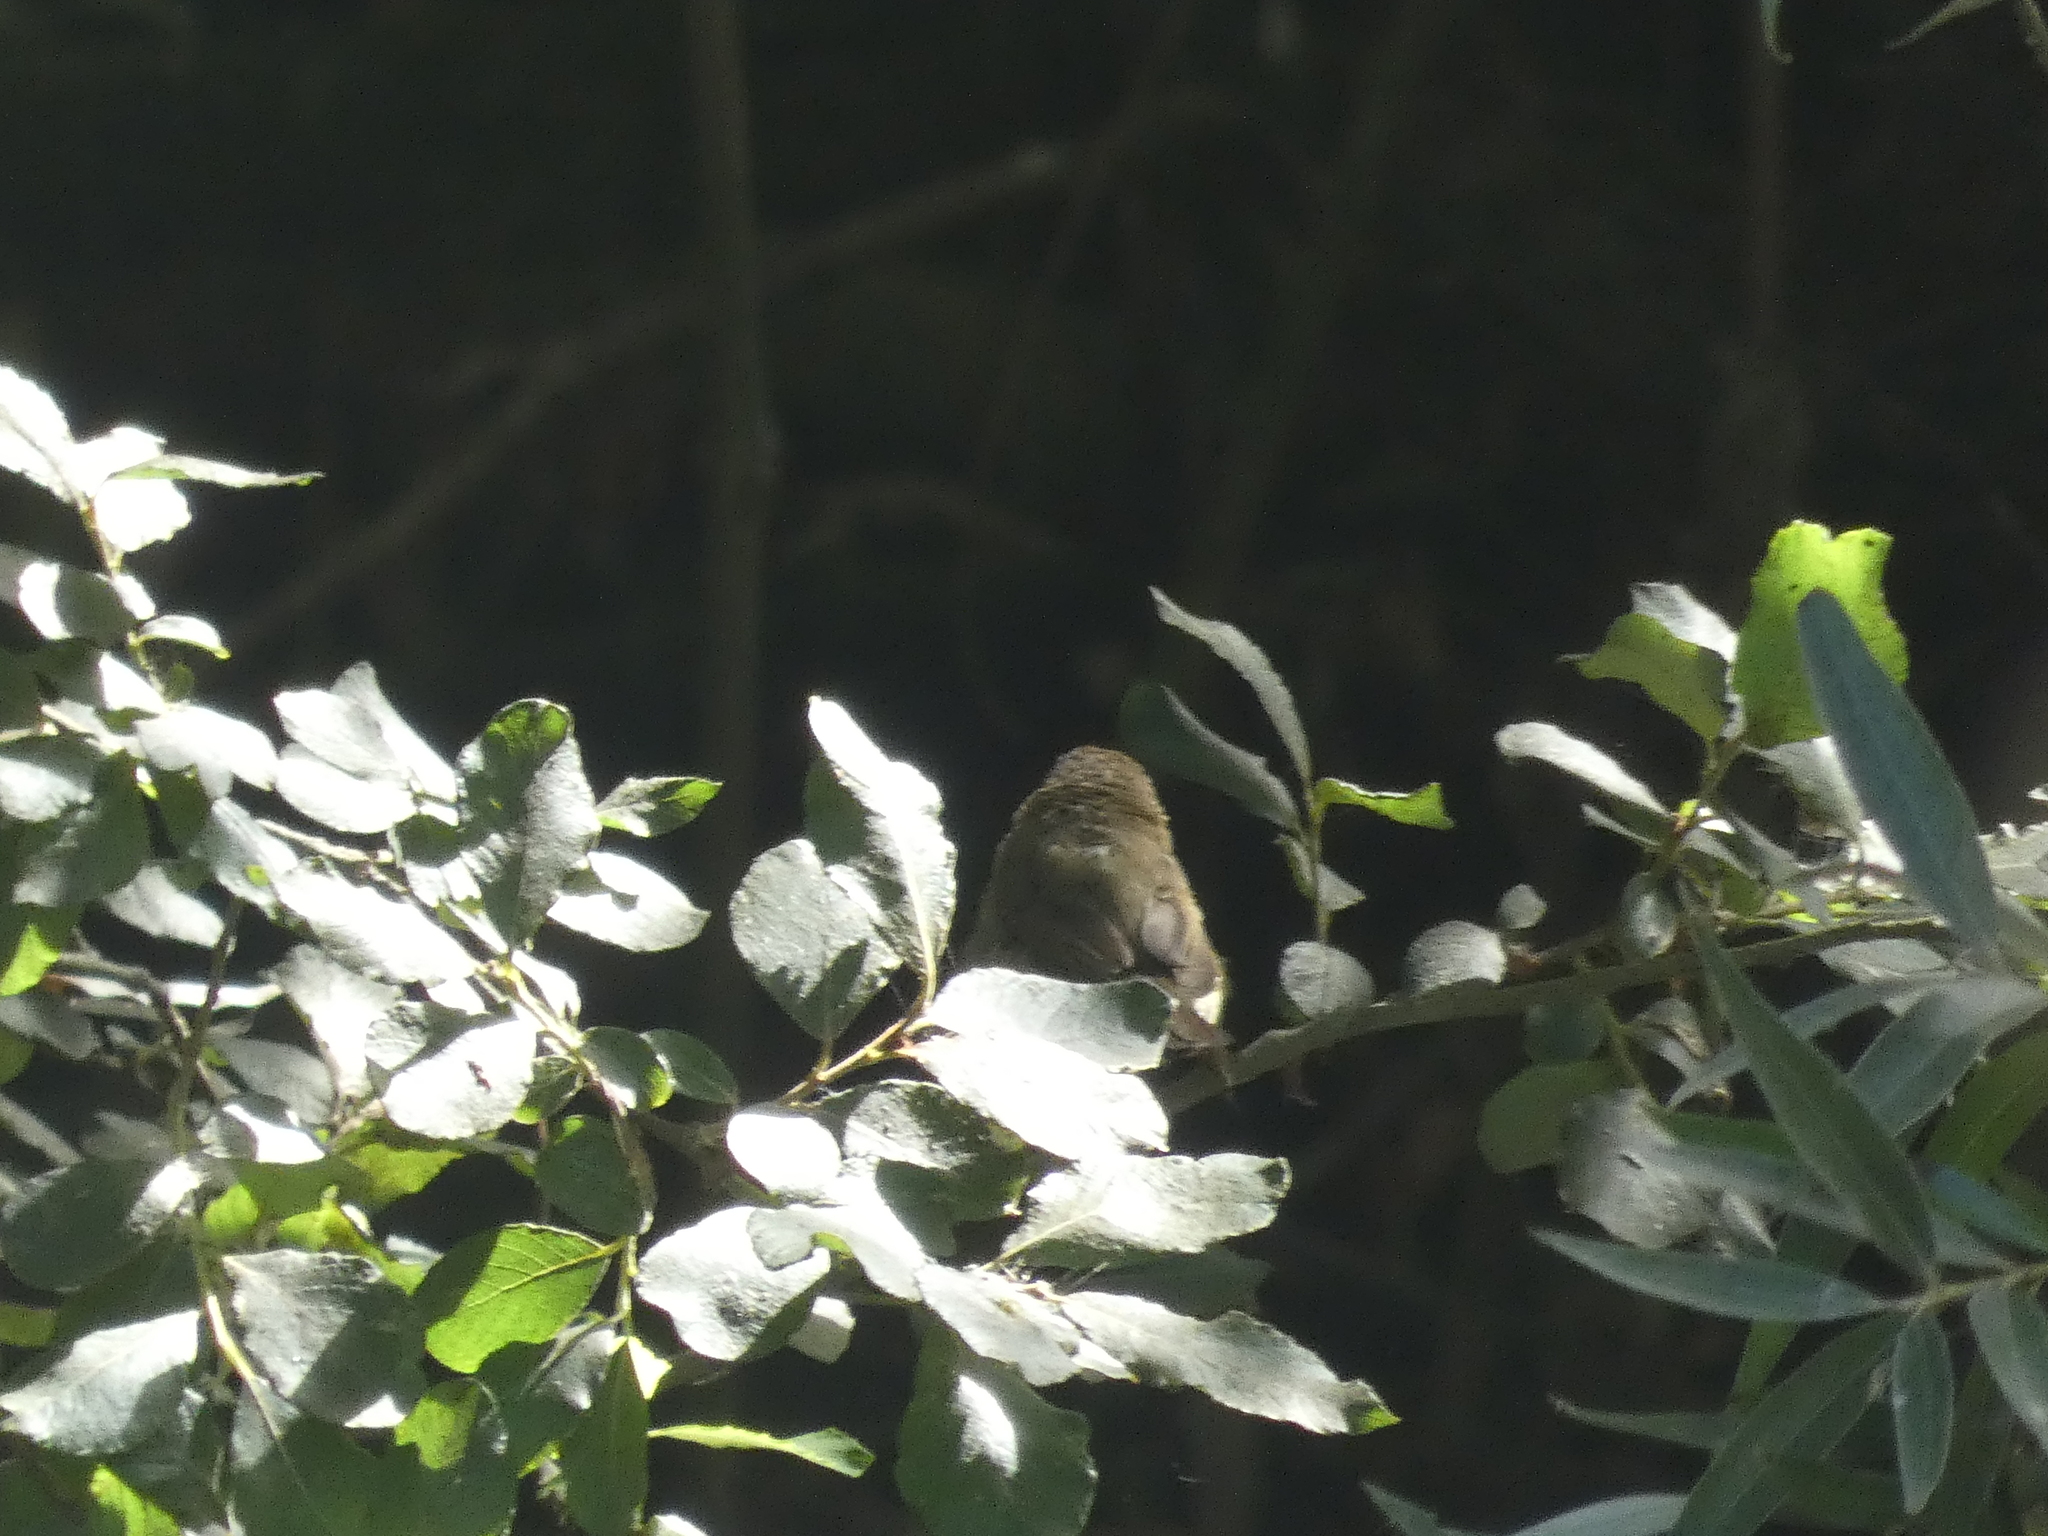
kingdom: Animalia
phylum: Chordata
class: Aves
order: Passeriformes
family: Phylloscopidae
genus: Phylloscopus
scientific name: Phylloscopus collybita
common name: Common chiffchaff
